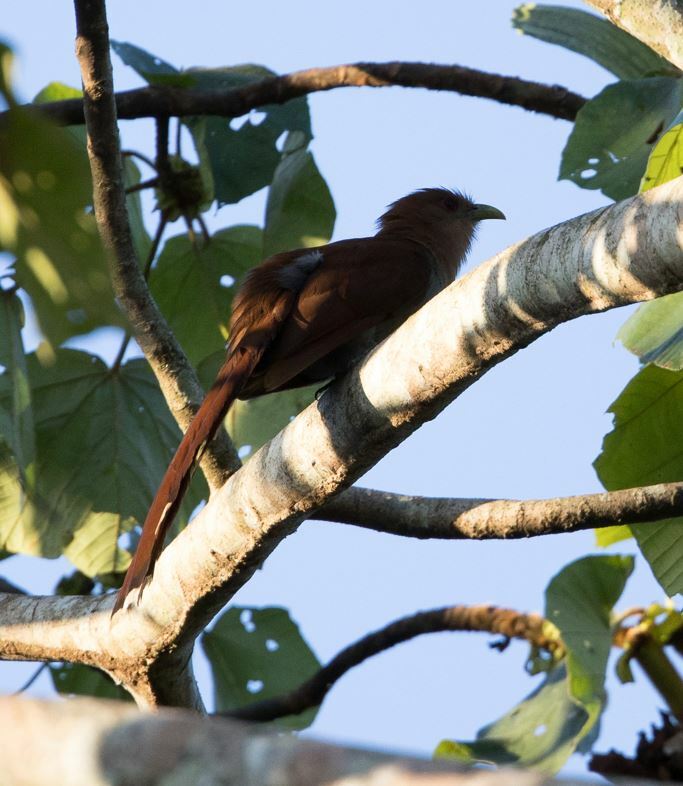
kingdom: Animalia
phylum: Chordata
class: Aves
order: Cuculiformes
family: Cuculidae
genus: Piaya
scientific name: Piaya cayana
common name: Squirrel cuckoo
